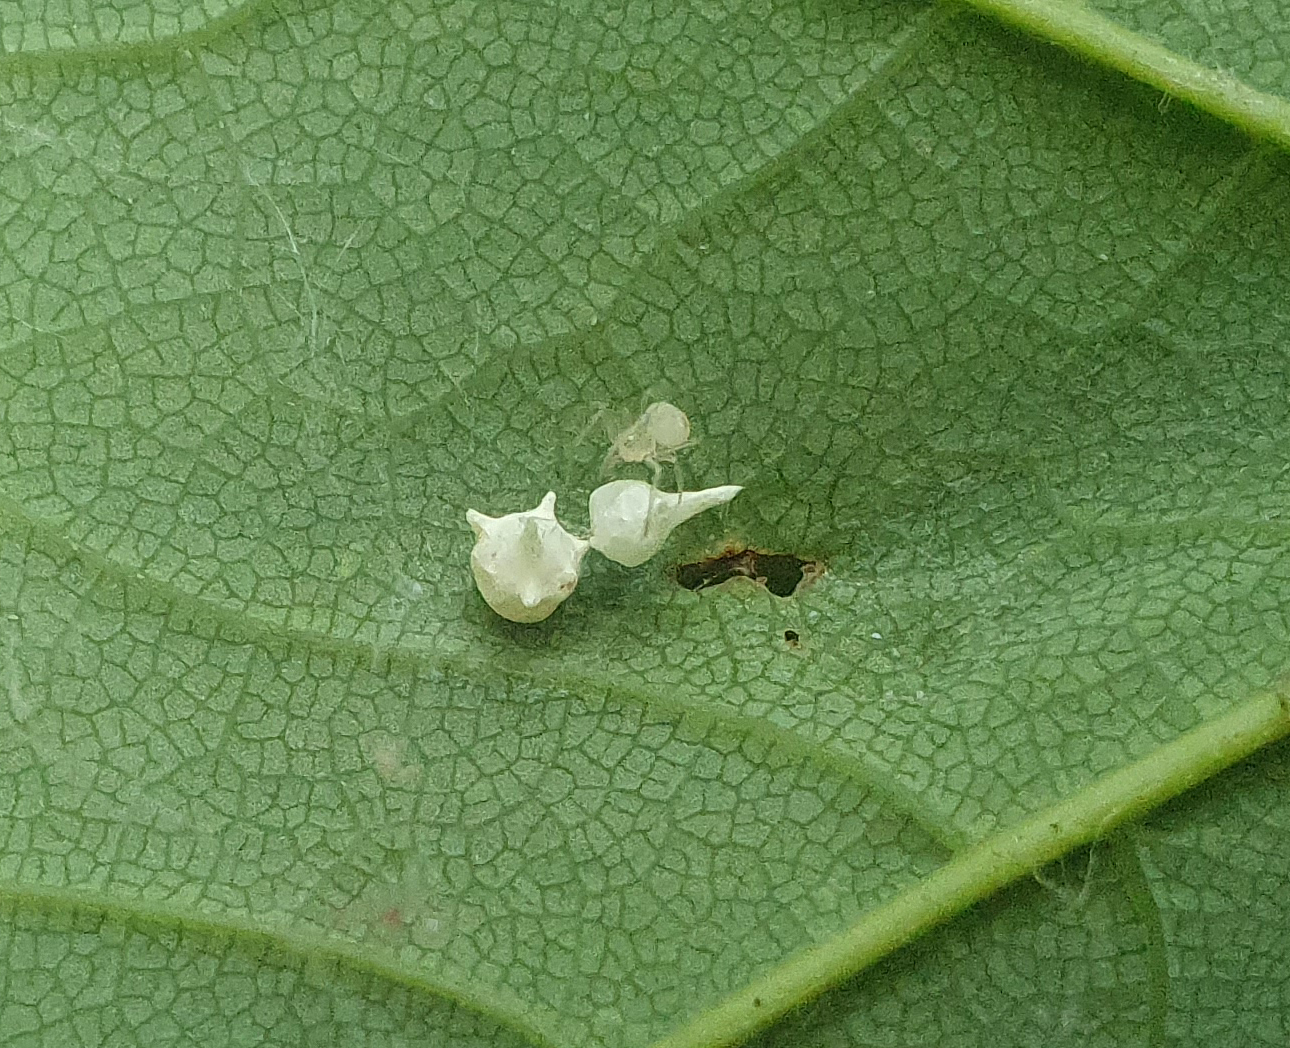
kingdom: Animalia
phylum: Arthropoda
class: Arachnida
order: Araneae
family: Theridiidae
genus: Paidiscura
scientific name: Paidiscura pallens
